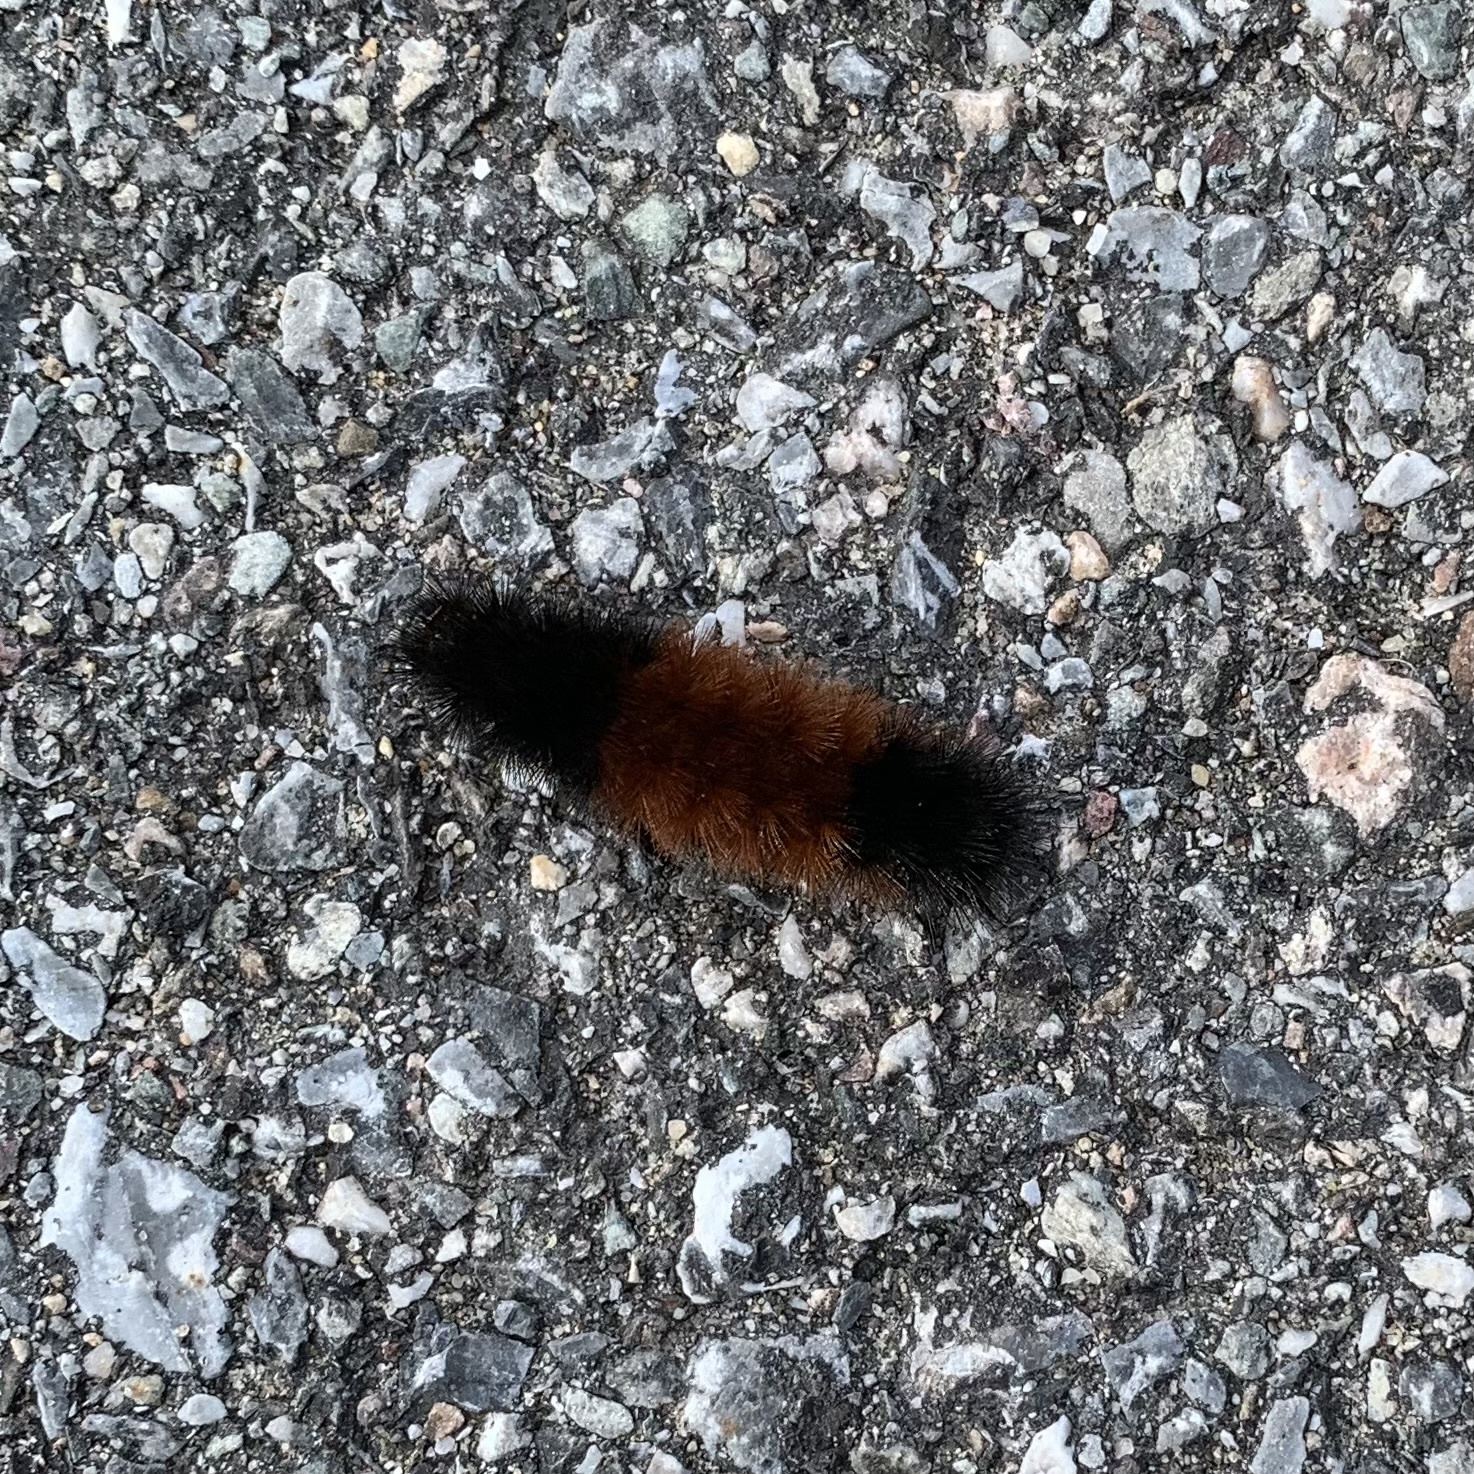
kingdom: Animalia
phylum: Arthropoda
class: Insecta
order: Lepidoptera
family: Erebidae
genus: Pyrrharctia
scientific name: Pyrrharctia isabella
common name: Isabella tiger moth
